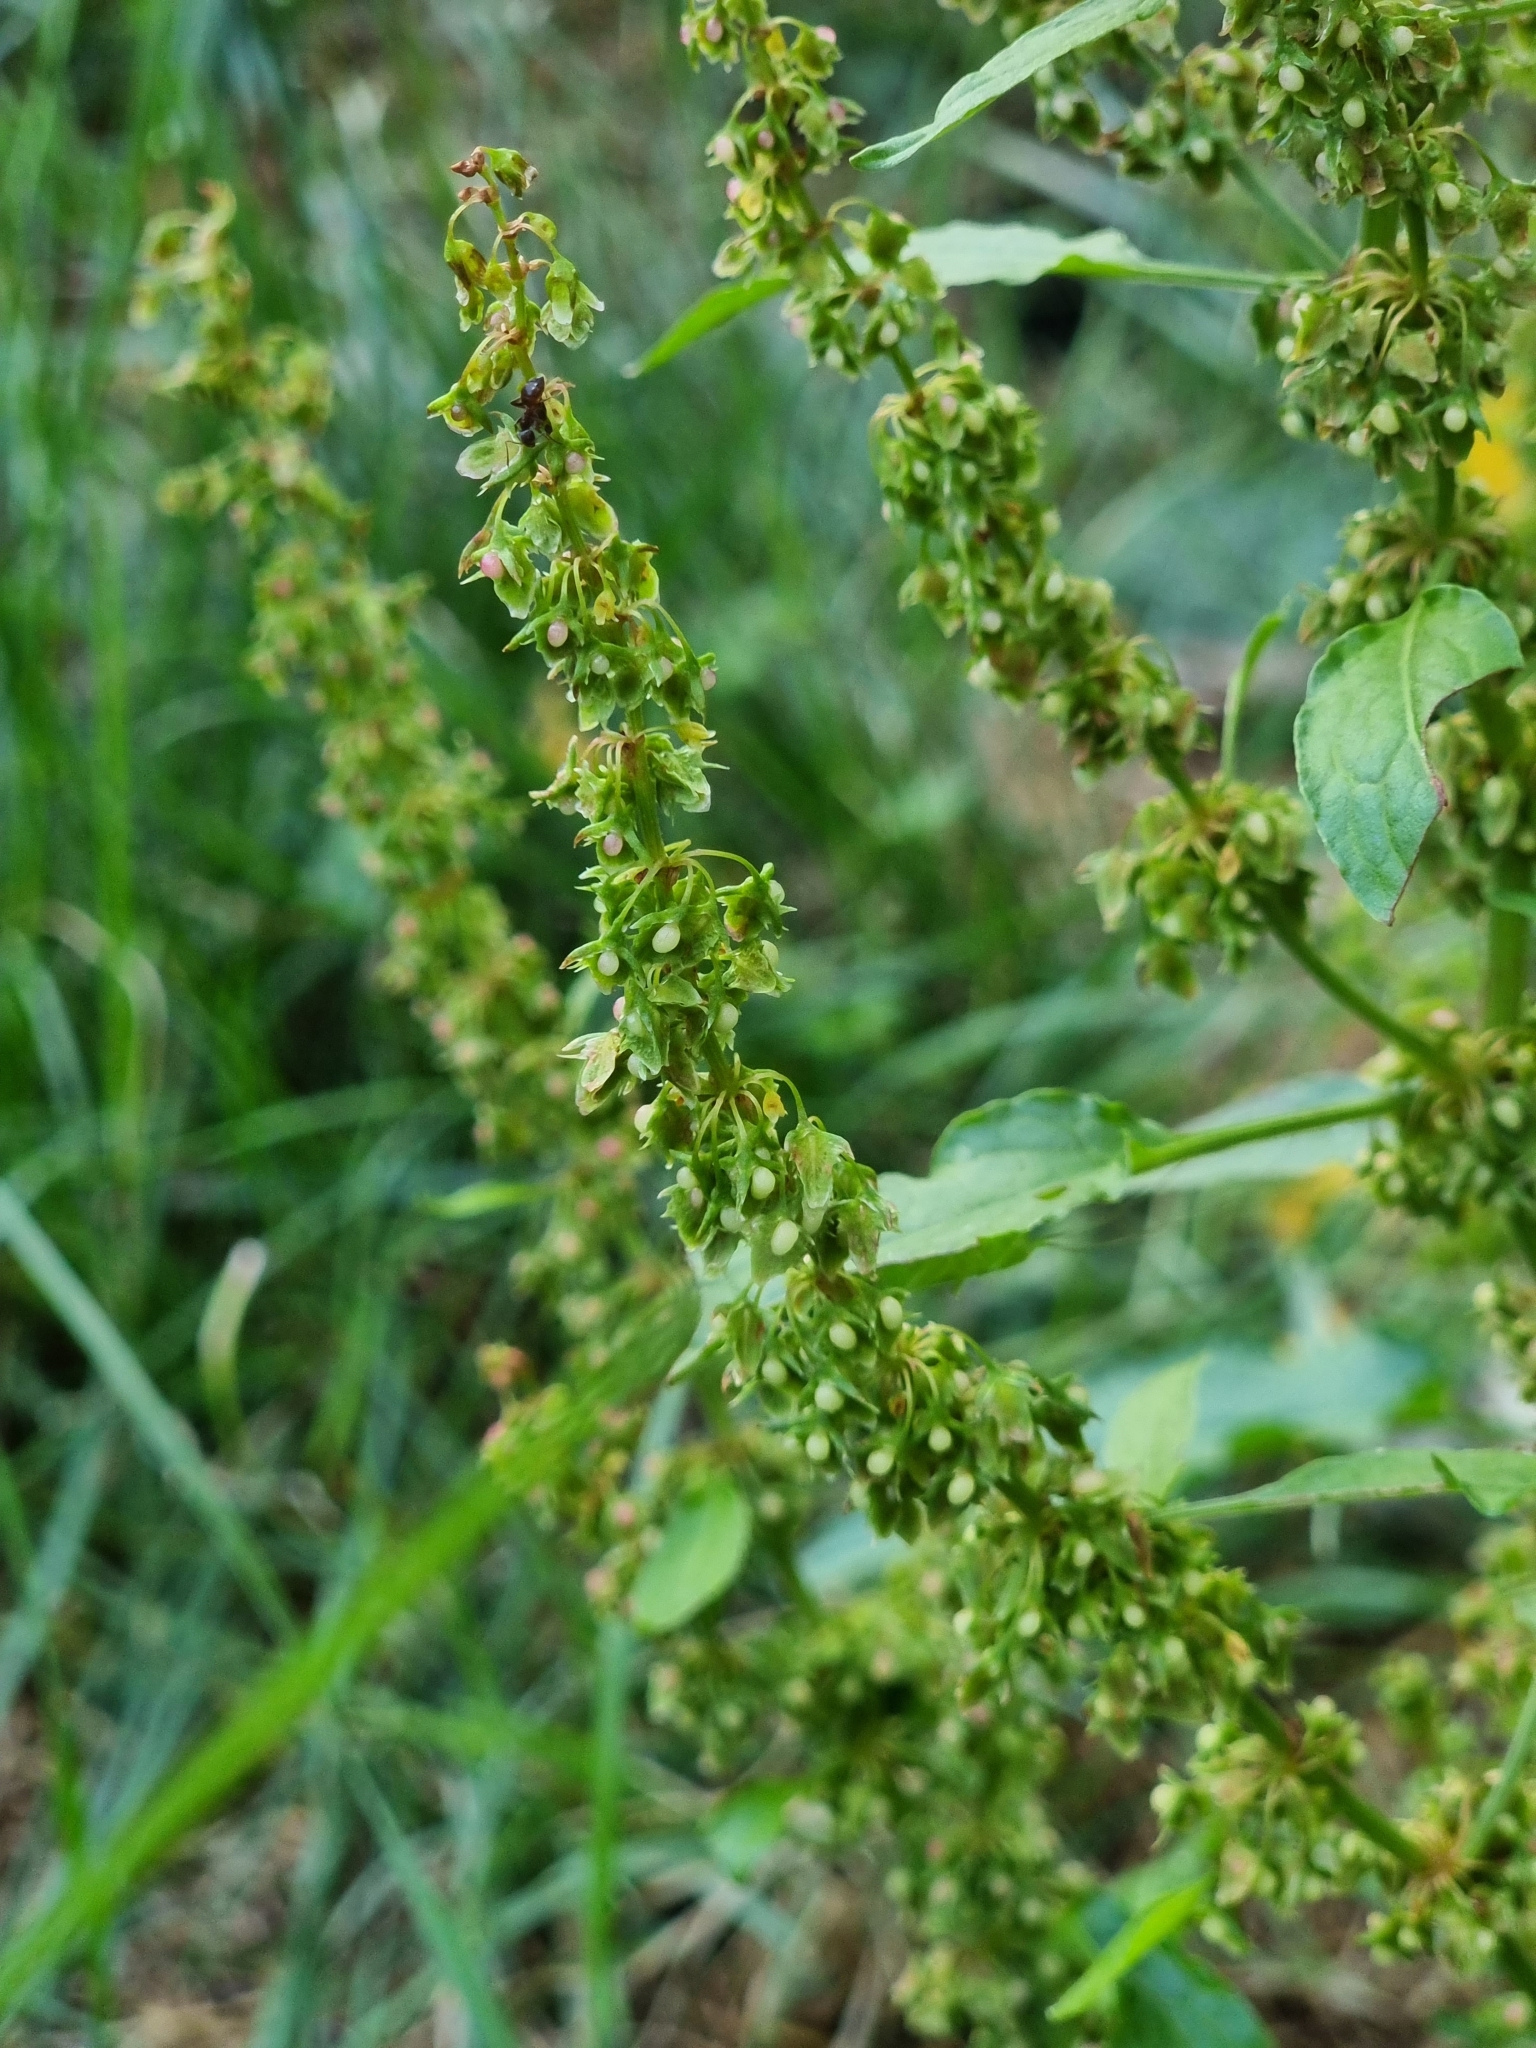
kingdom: Plantae
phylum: Tracheophyta
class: Magnoliopsida
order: Caryophyllales
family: Polygonaceae
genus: Rumex
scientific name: Rumex obtusifolius
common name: Bitter dock
